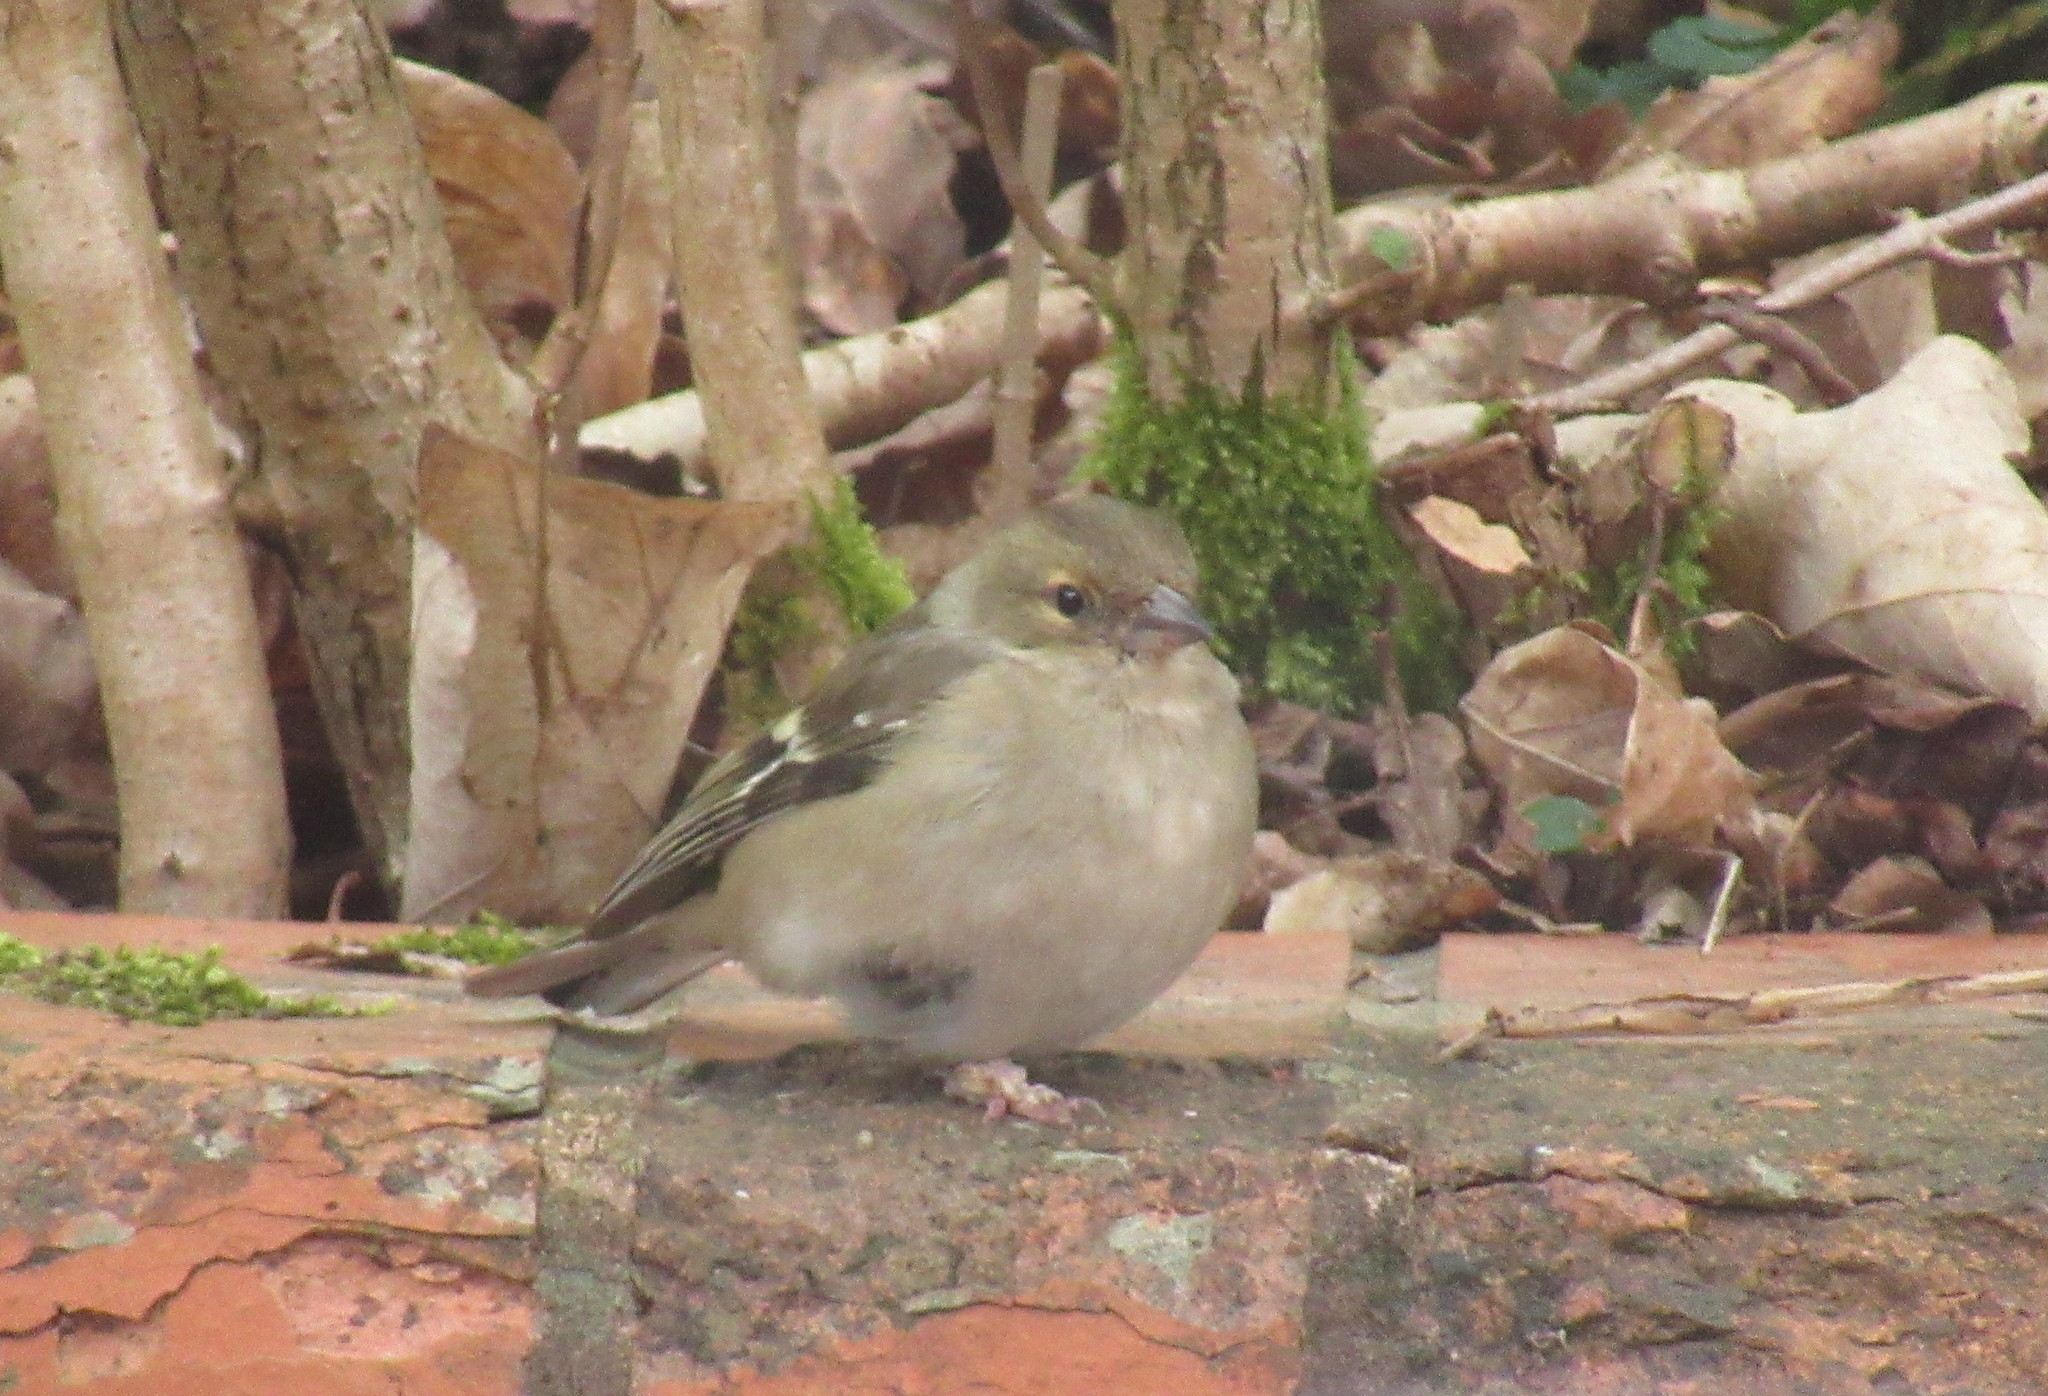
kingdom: Animalia
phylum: Chordata
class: Aves
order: Passeriformes
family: Fringillidae
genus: Fringilla
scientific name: Fringilla coelebs
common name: Common chaffinch
